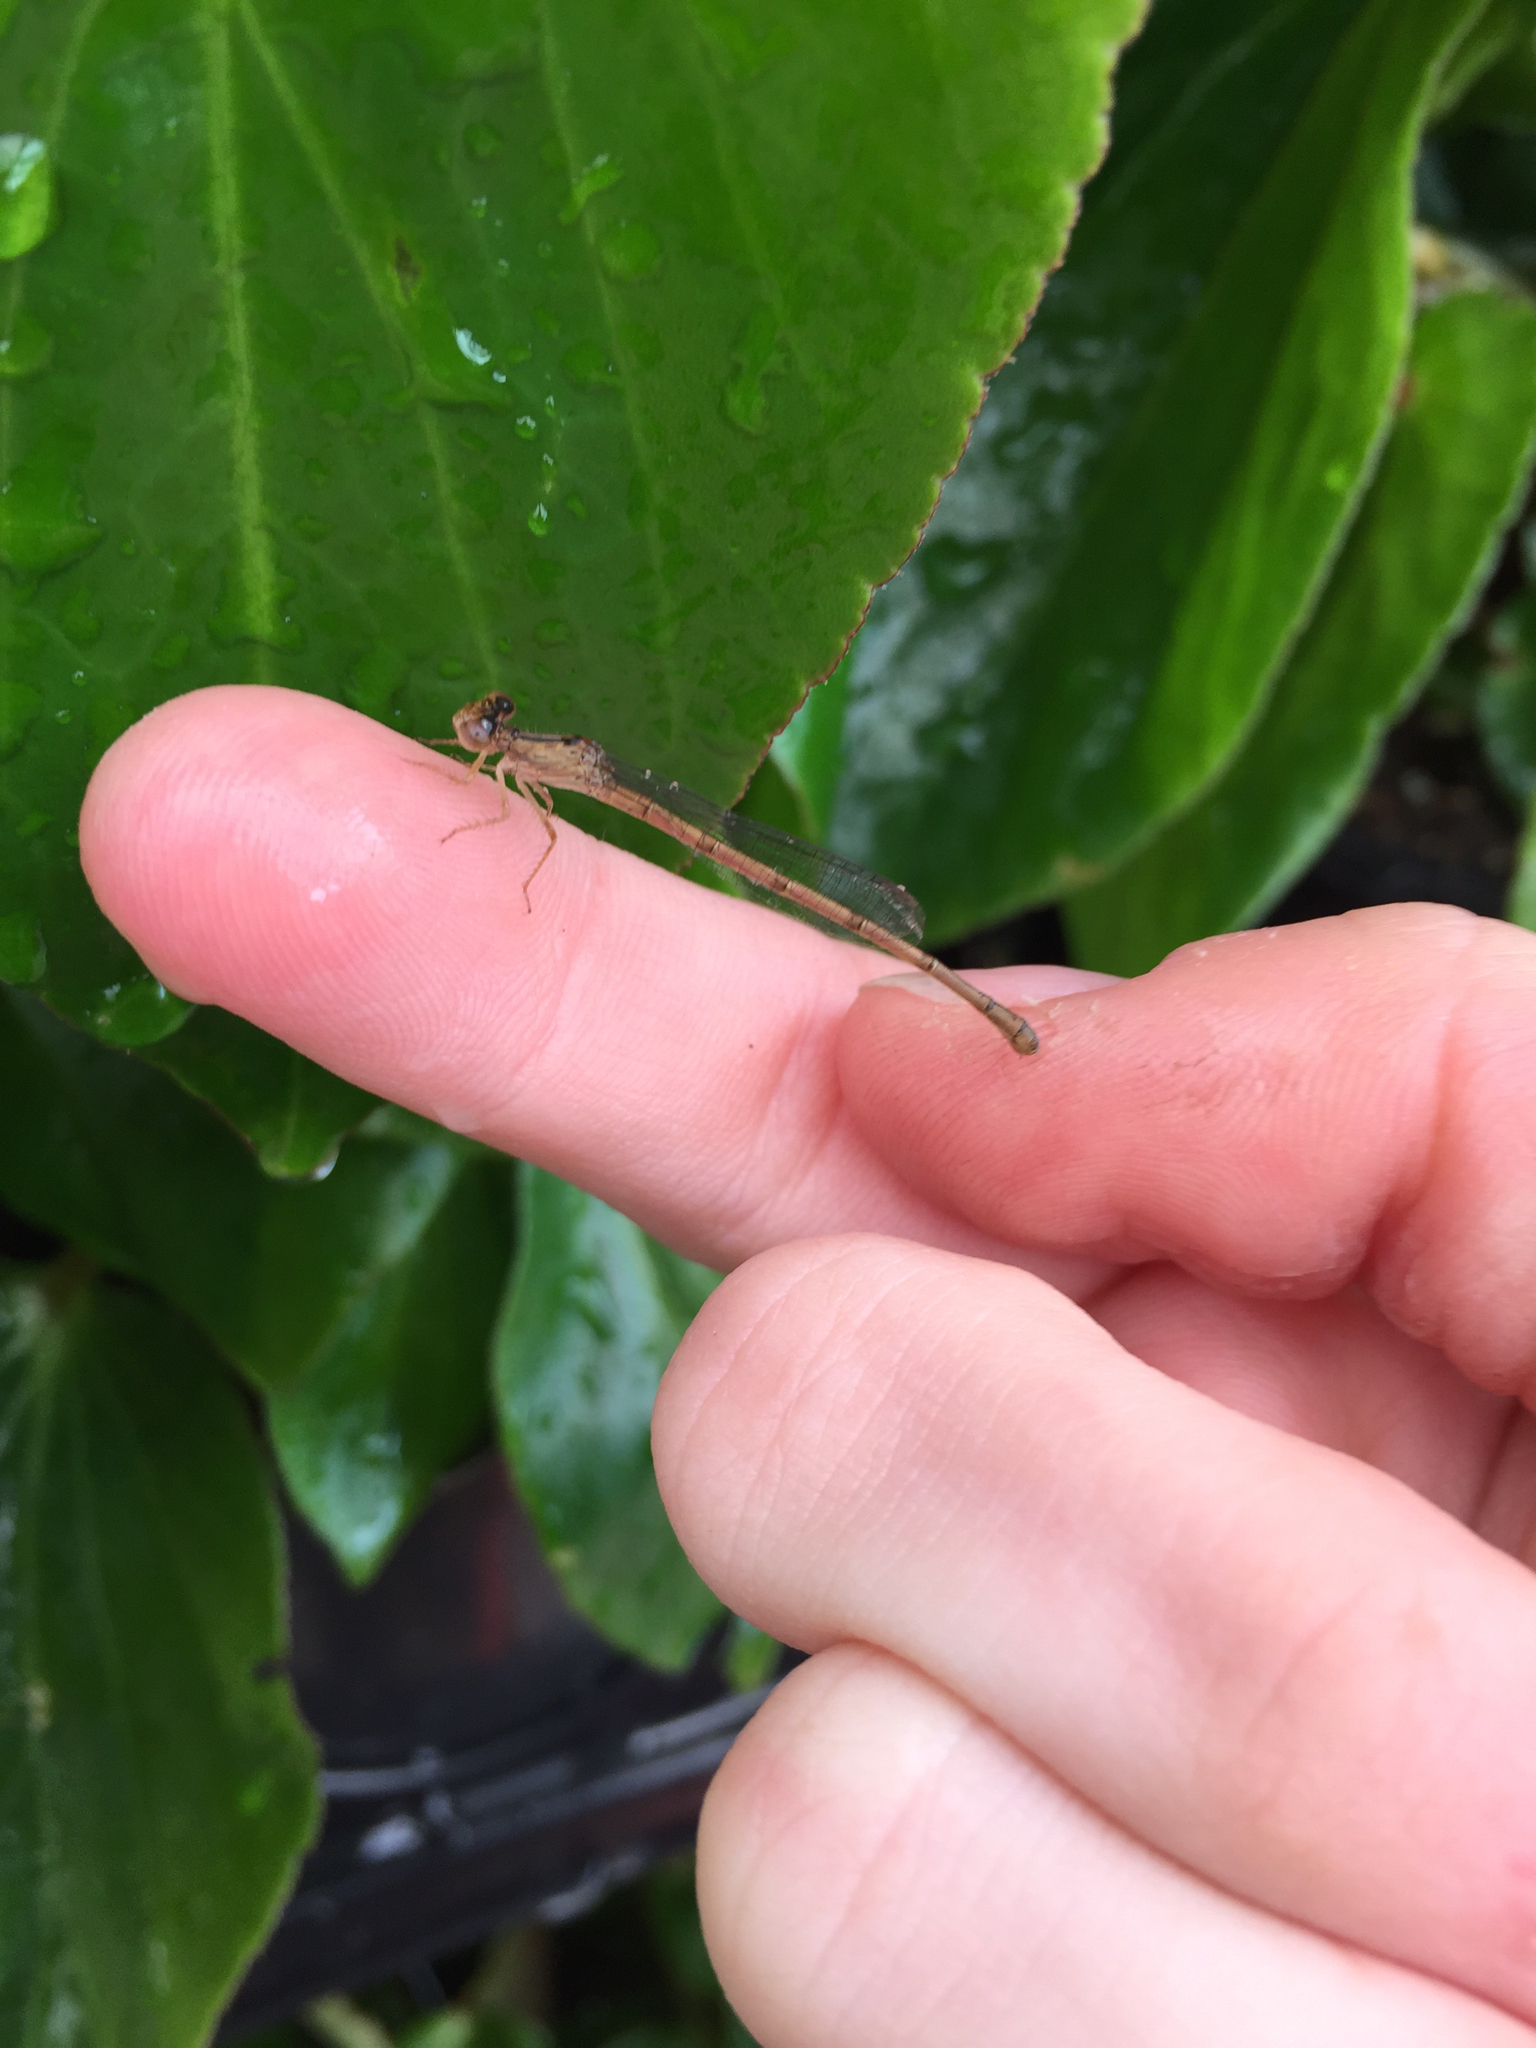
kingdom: Animalia
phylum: Arthropoda
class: Insecta
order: Odonata
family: Coenagrionidae
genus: Telebasis
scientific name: Telebasis salva
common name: Desert firetail
